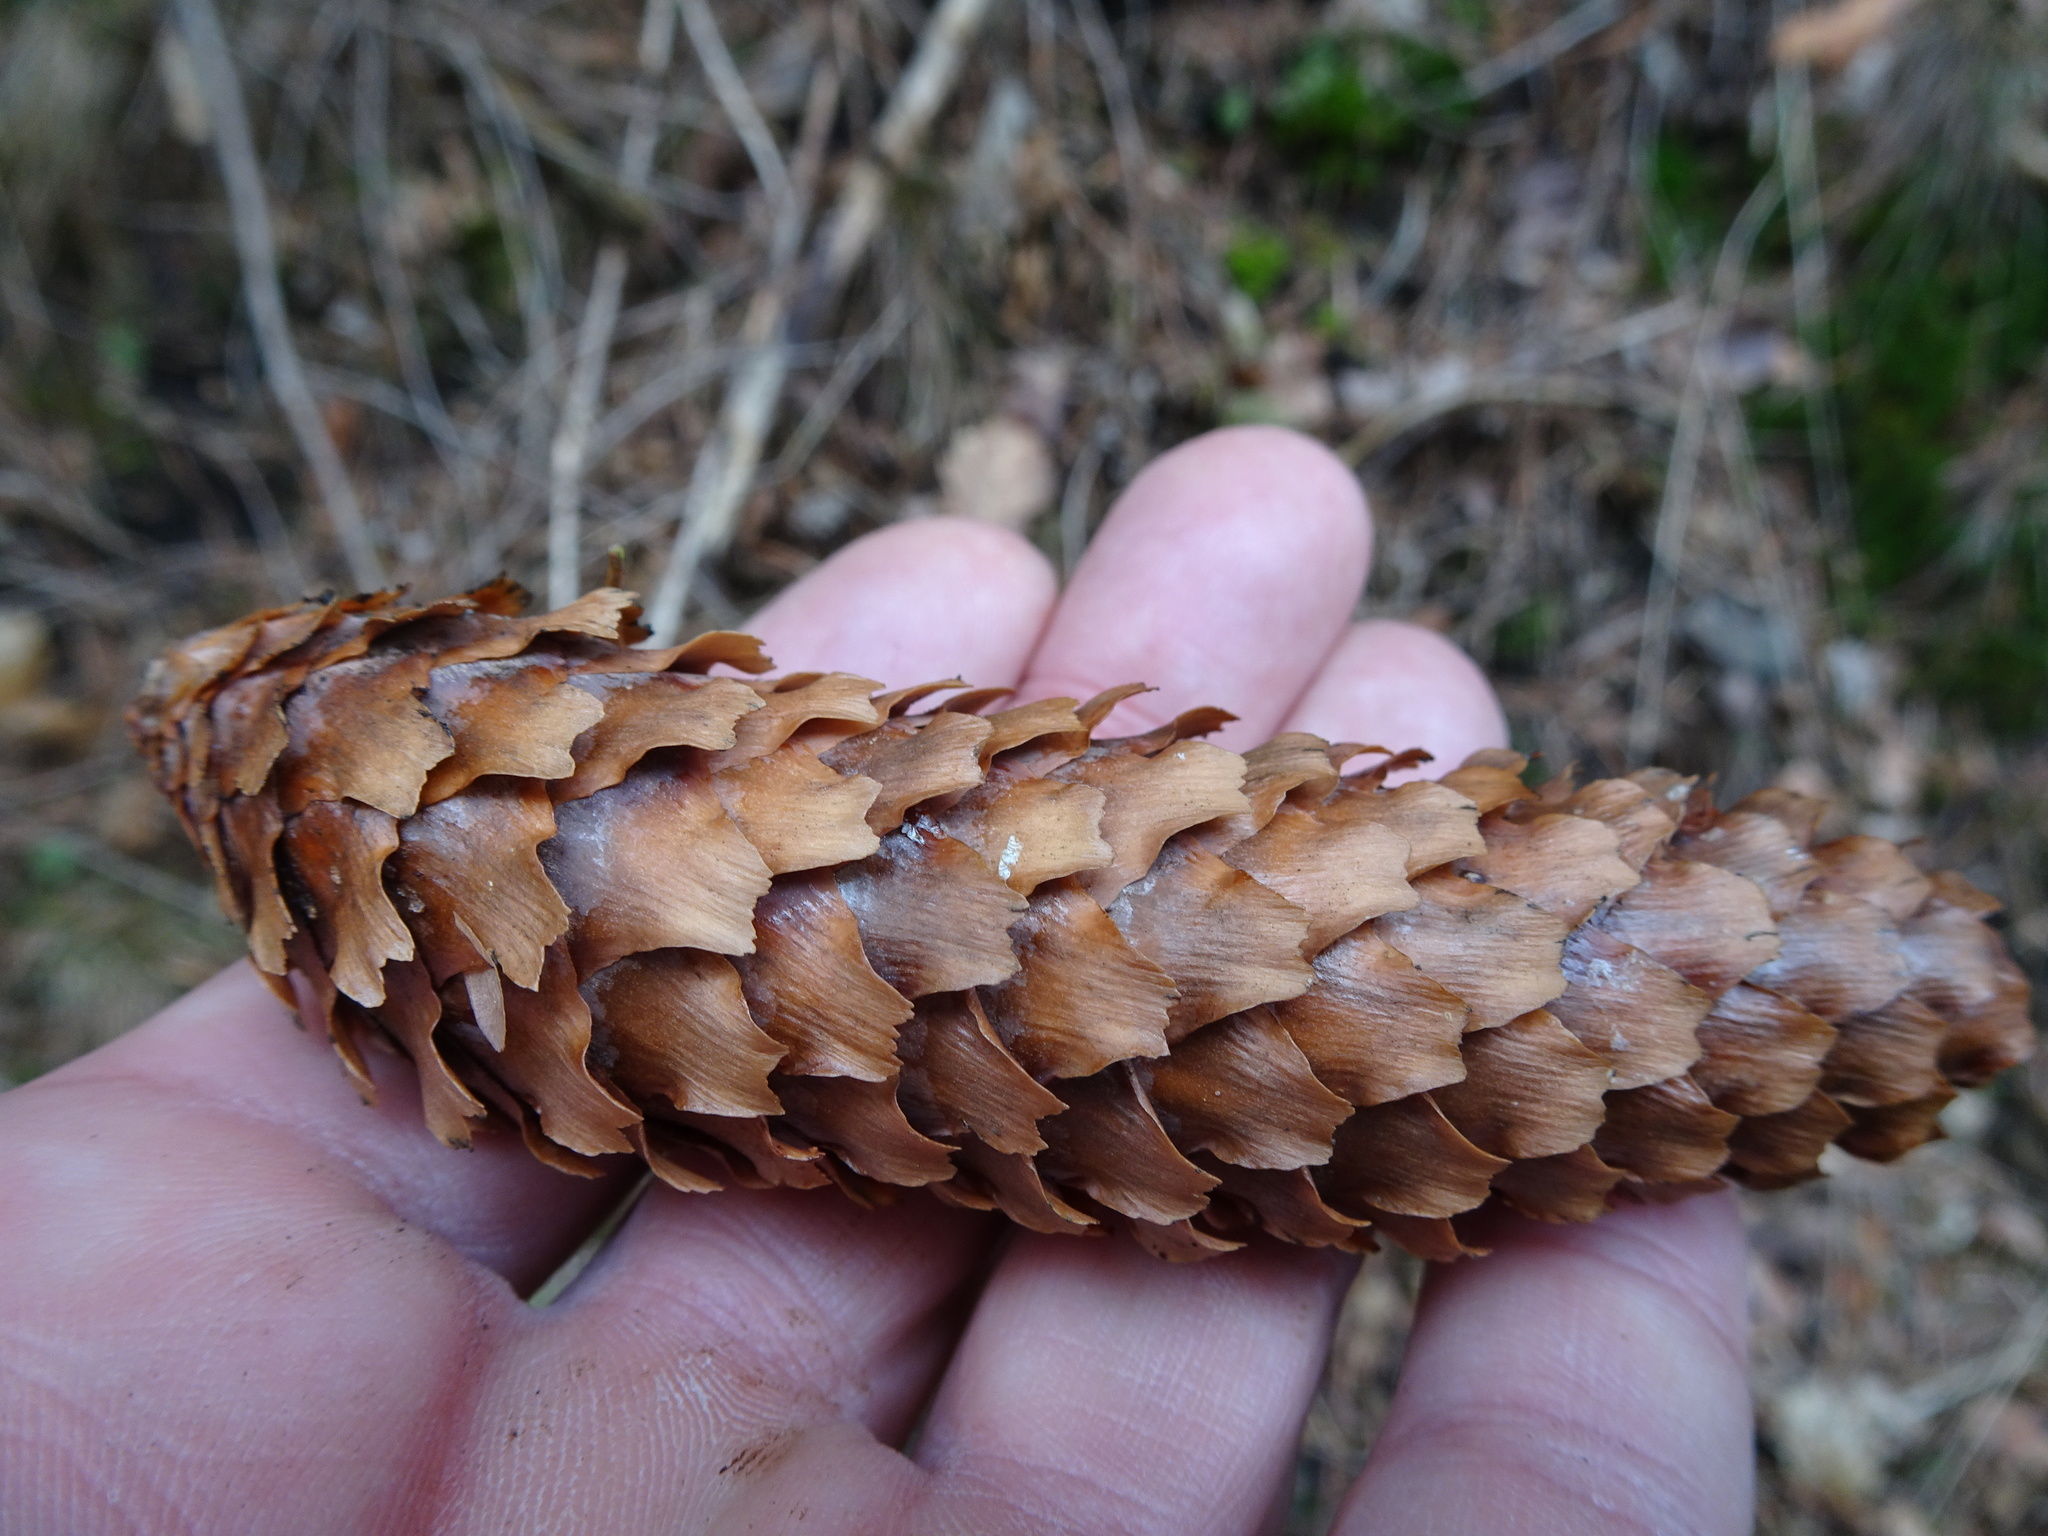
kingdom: Plantae
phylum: Tracheophyta
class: Pinopsida
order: Pinales
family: Pinaceae
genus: Picea
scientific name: Picea abies
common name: Norway spruce
